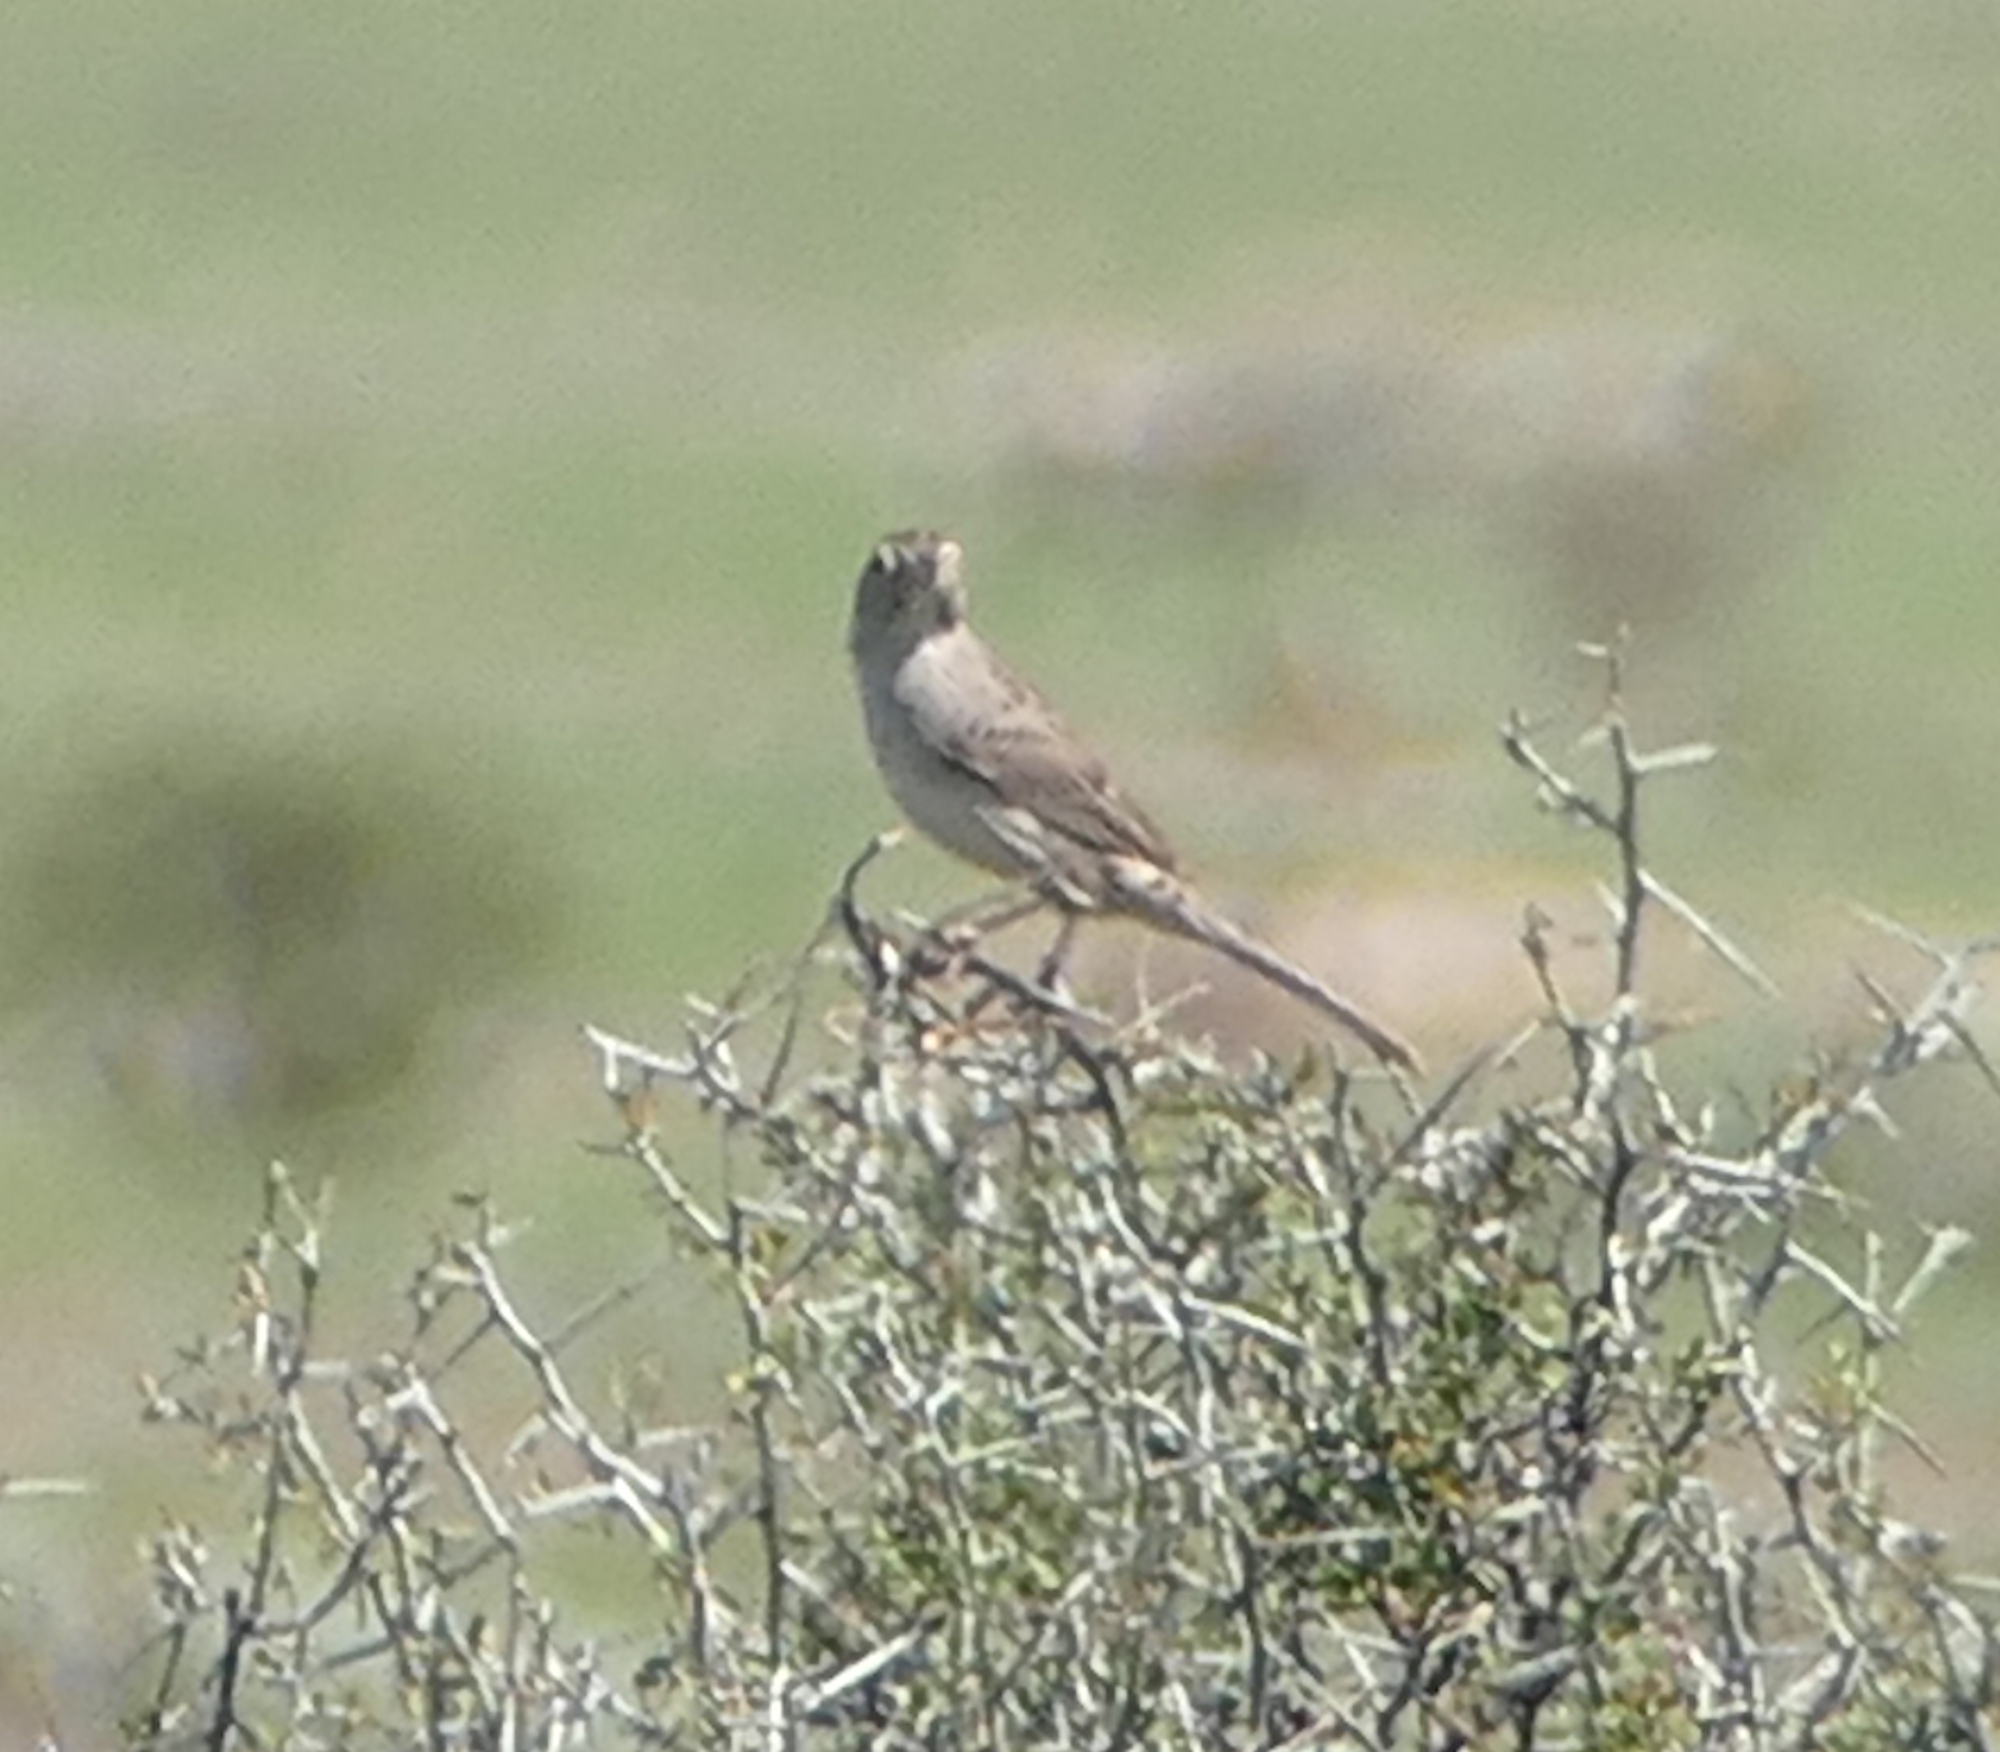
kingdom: Animalia
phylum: Chordata
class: Aves
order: Passeriformes
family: Passerellidae
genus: Peucaea
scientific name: Peucaea cassinii
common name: Cassin's sparrow
